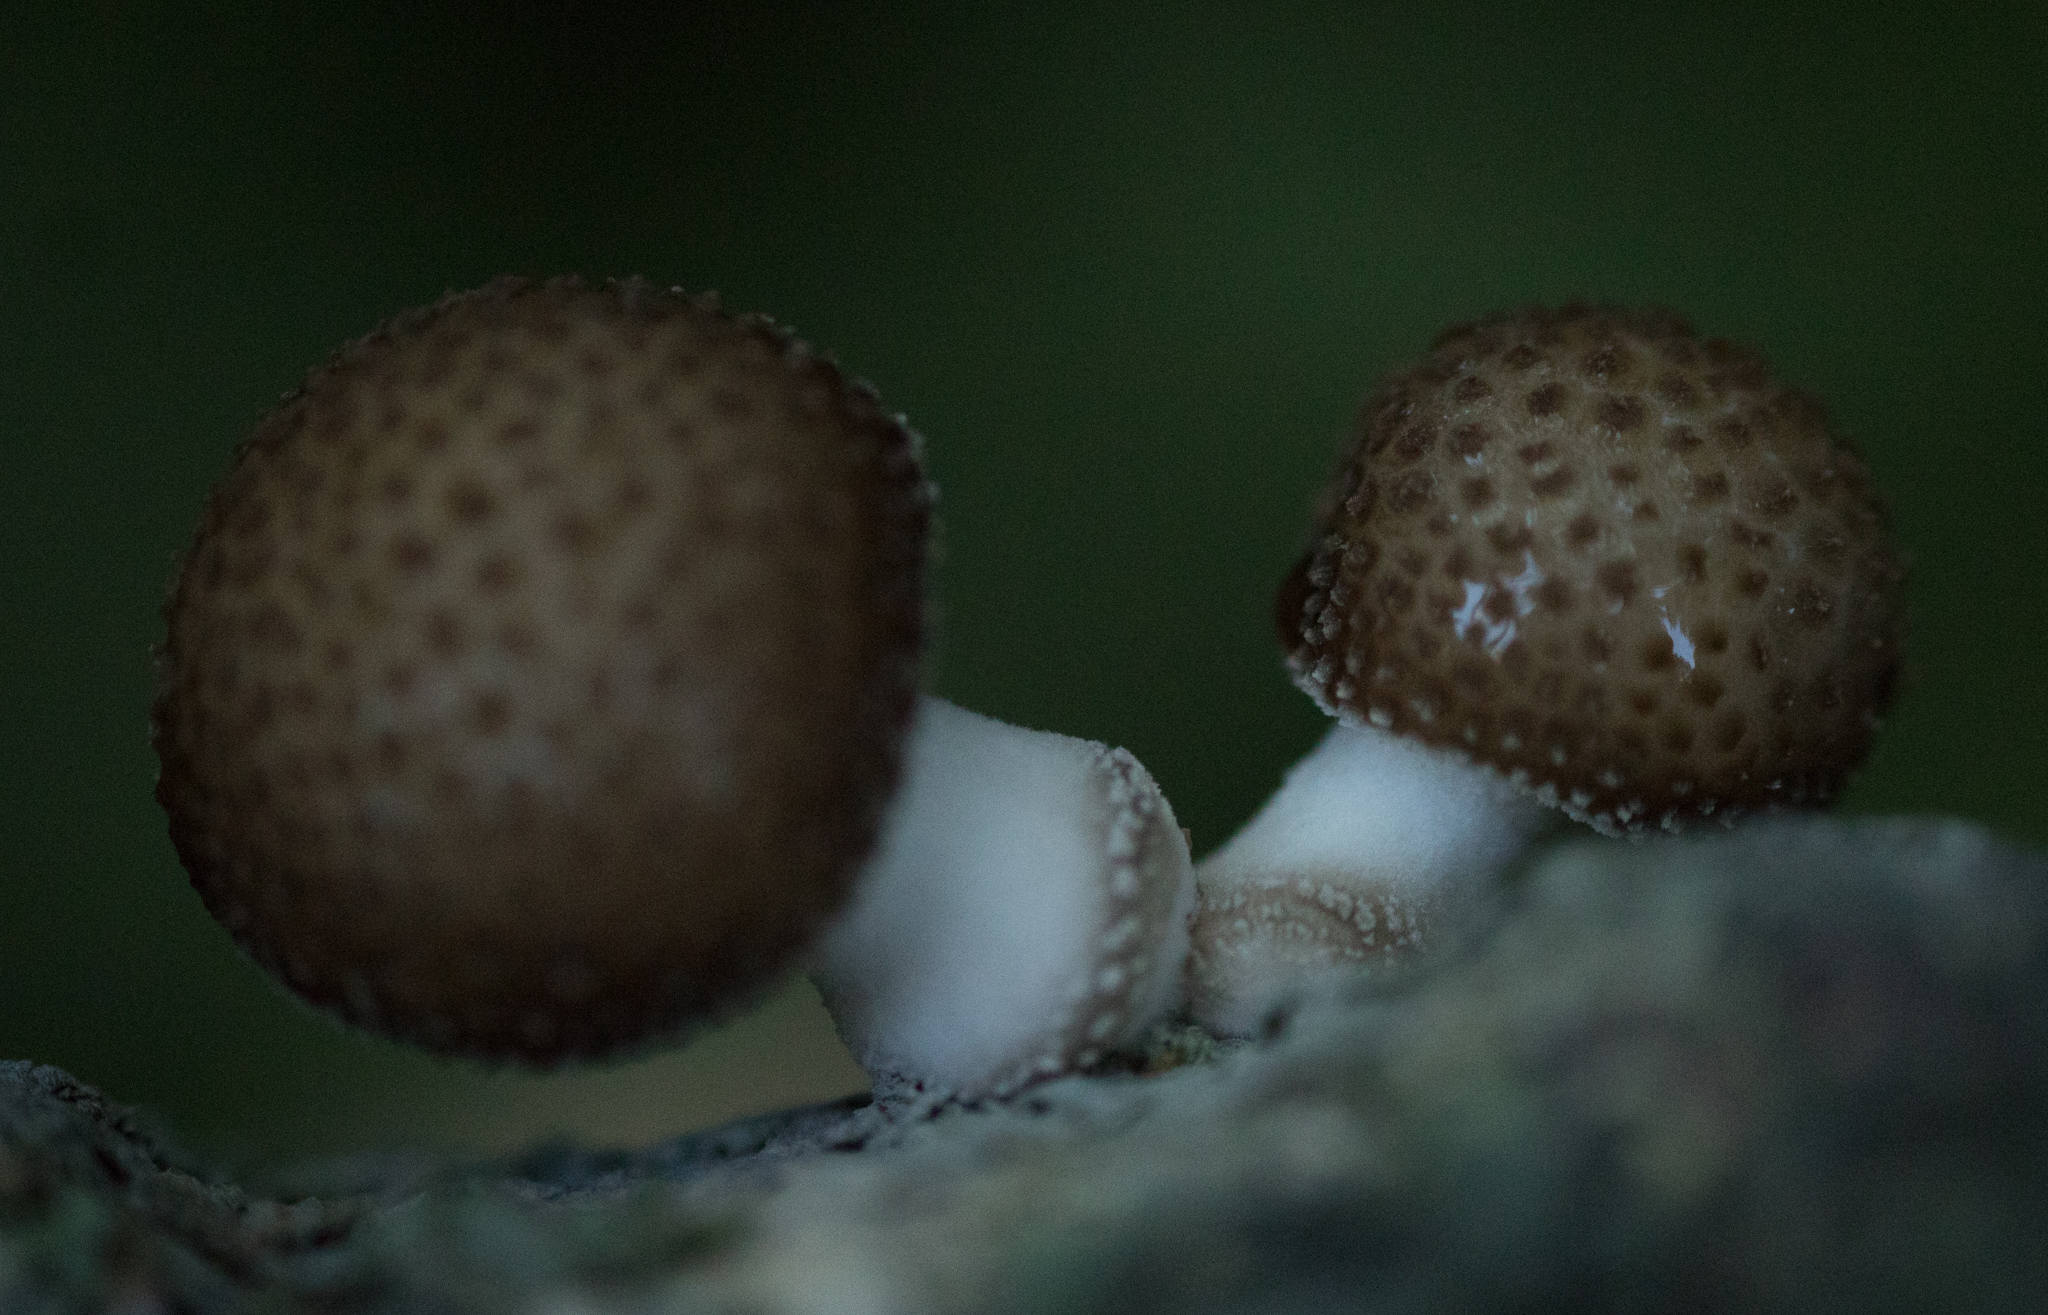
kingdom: Fungi
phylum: Basidiomycota
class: Agaricomycetes
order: Agaricales
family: Physalacriaceae
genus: Oudemansiella
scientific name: Oudemansiella cubensis
